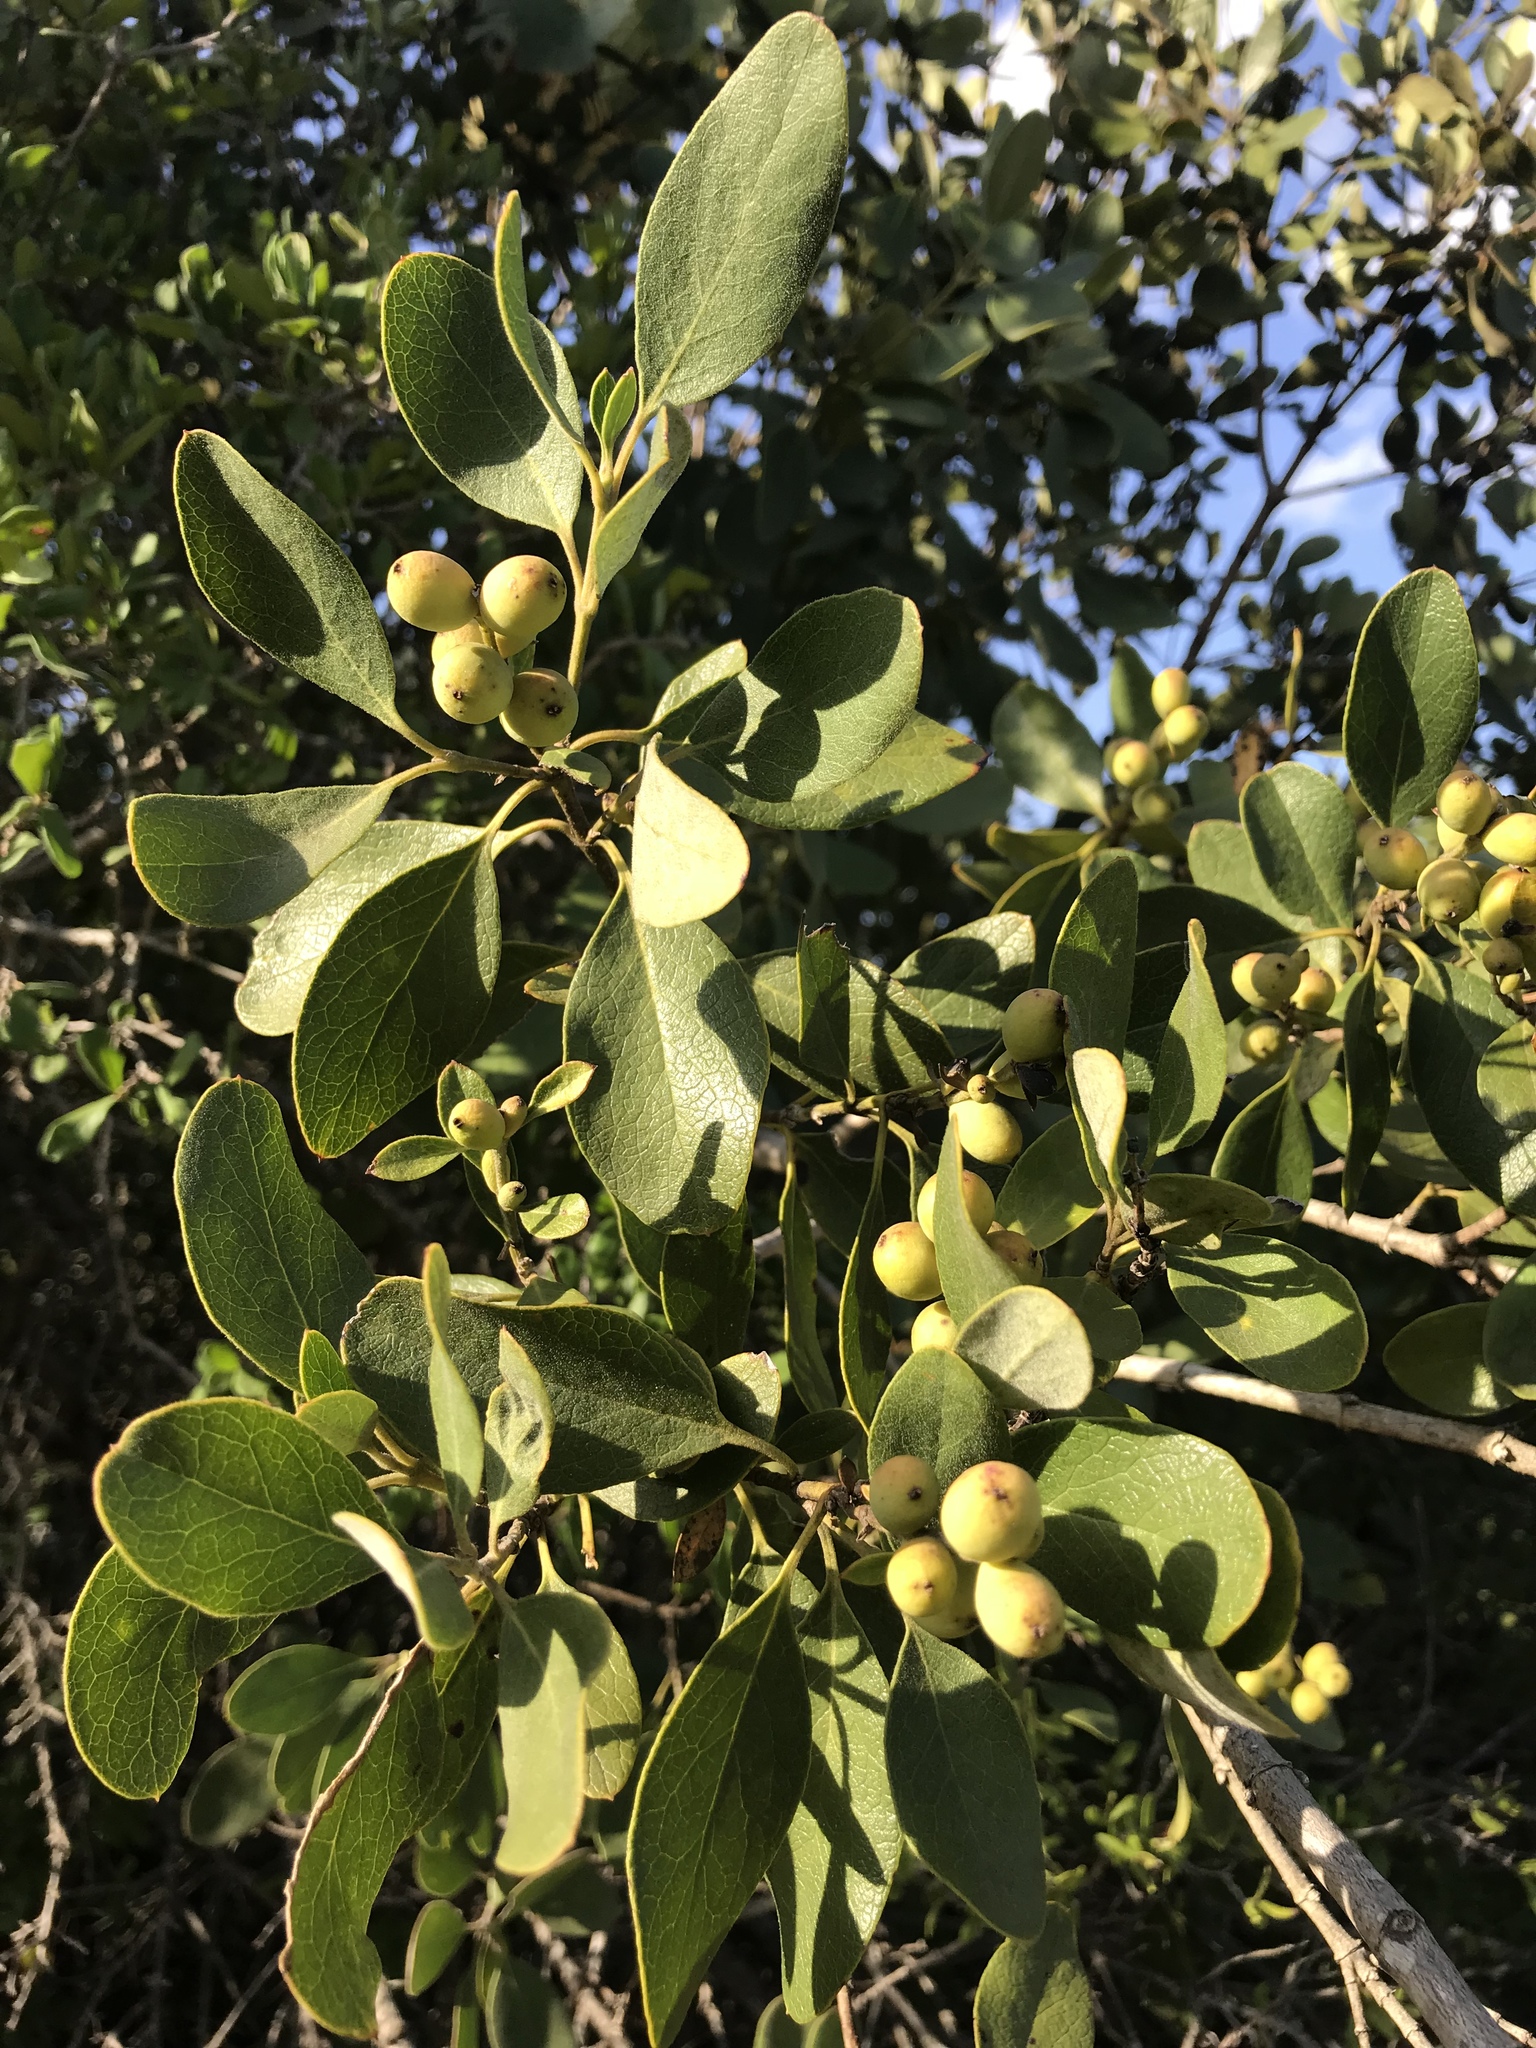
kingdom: Plantae
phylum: Tracheophyta
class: Magnoliopsida
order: Garryales
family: Garryaceae
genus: Garrya
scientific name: Garrya lindheimeri
